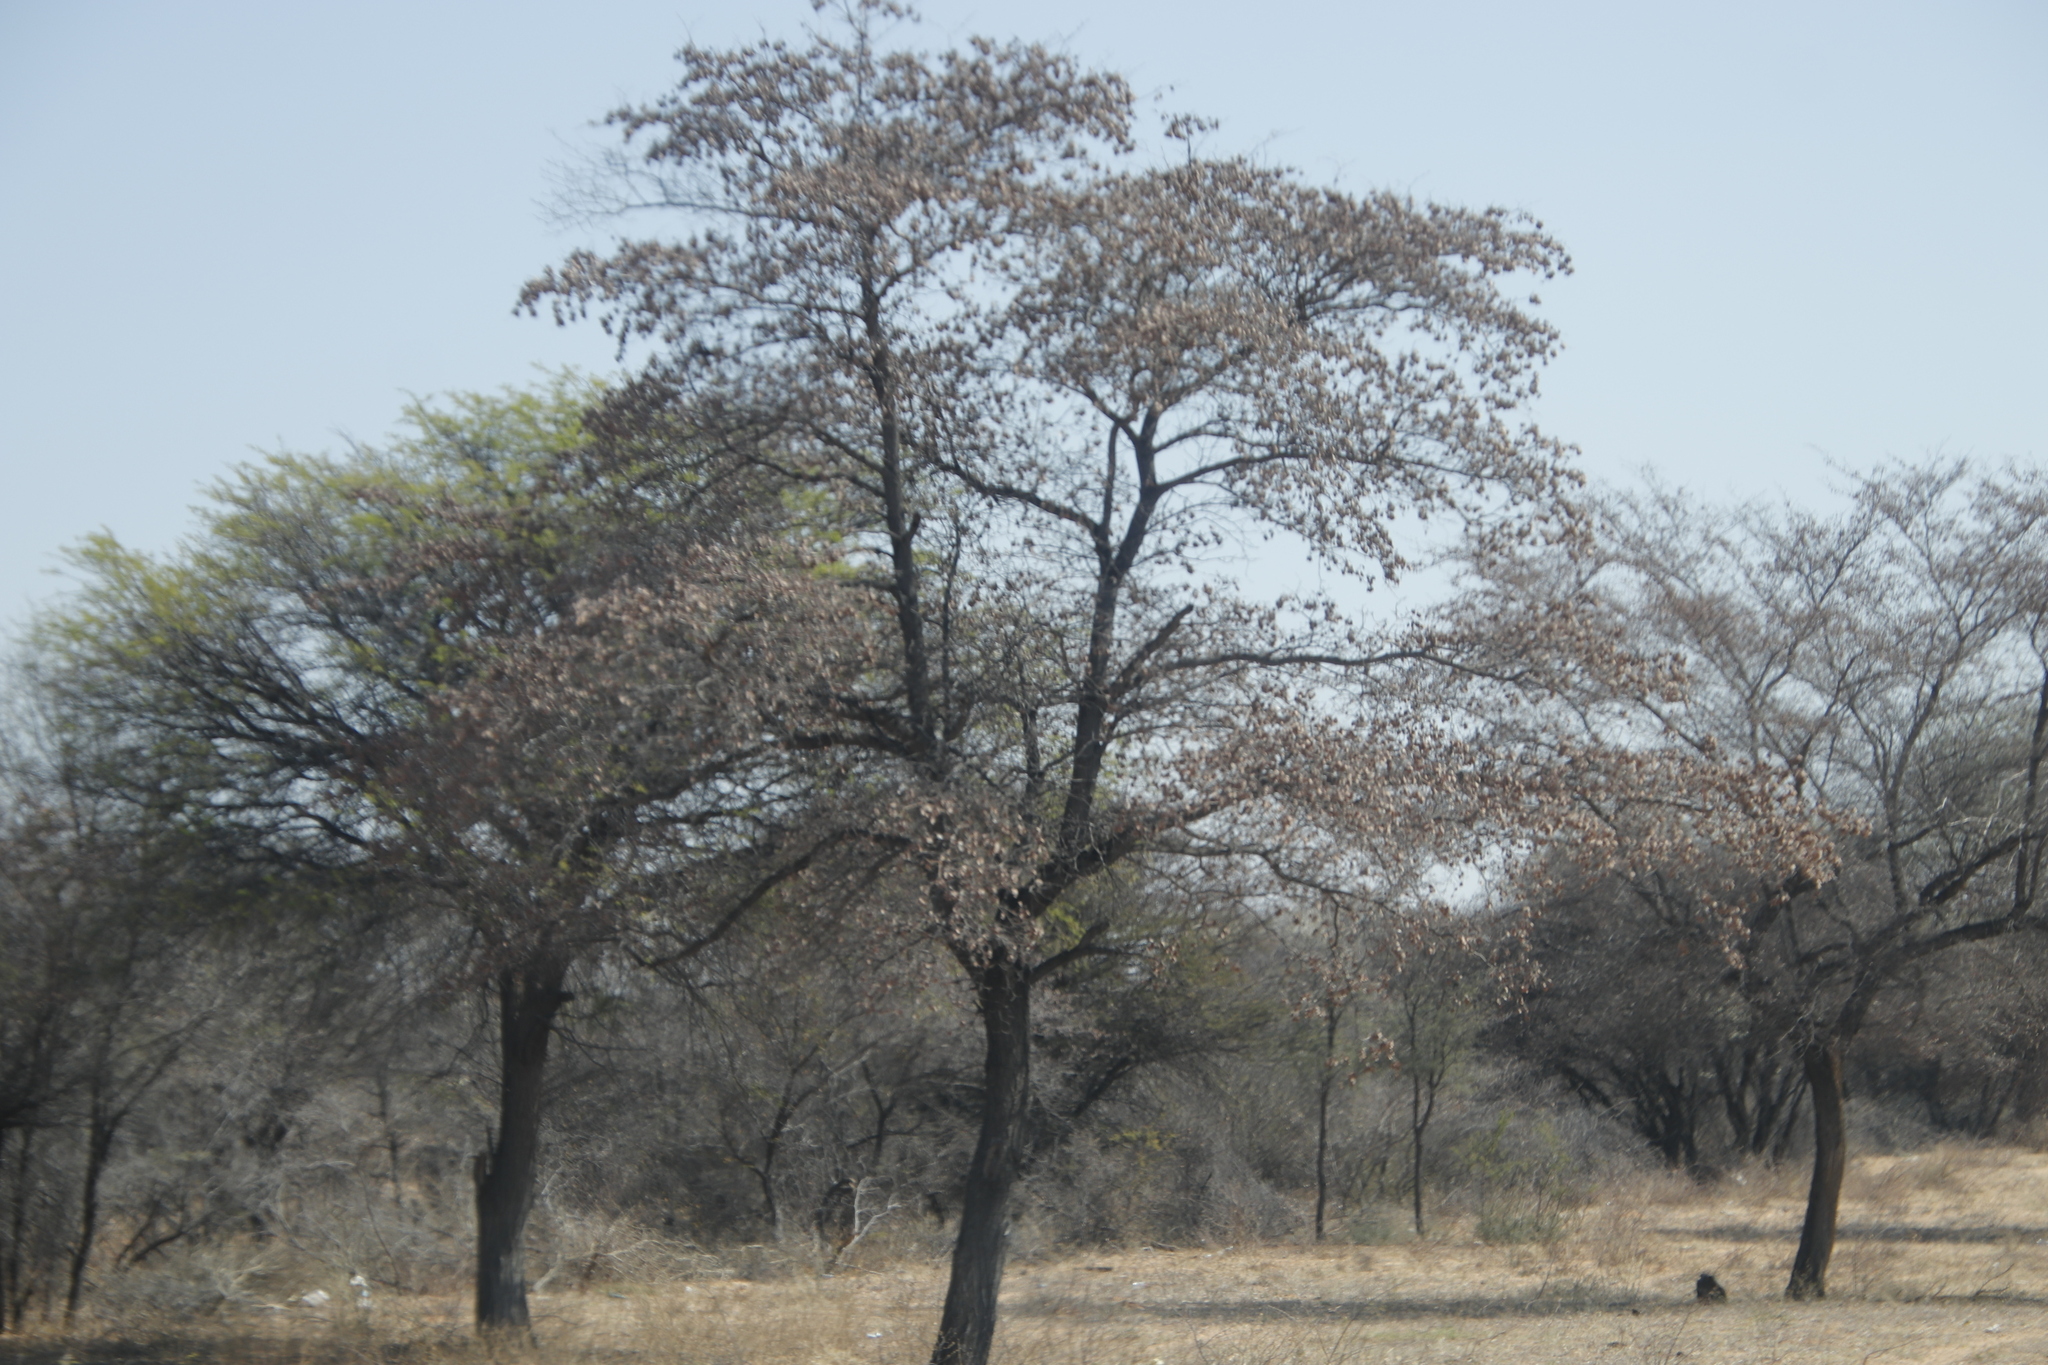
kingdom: Plantae
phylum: Tracheophyta
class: Magnoliopsida
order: Myrtales
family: Combretaceae
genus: Terminalia
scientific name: Terminalia sericea
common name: Clusterleaf
